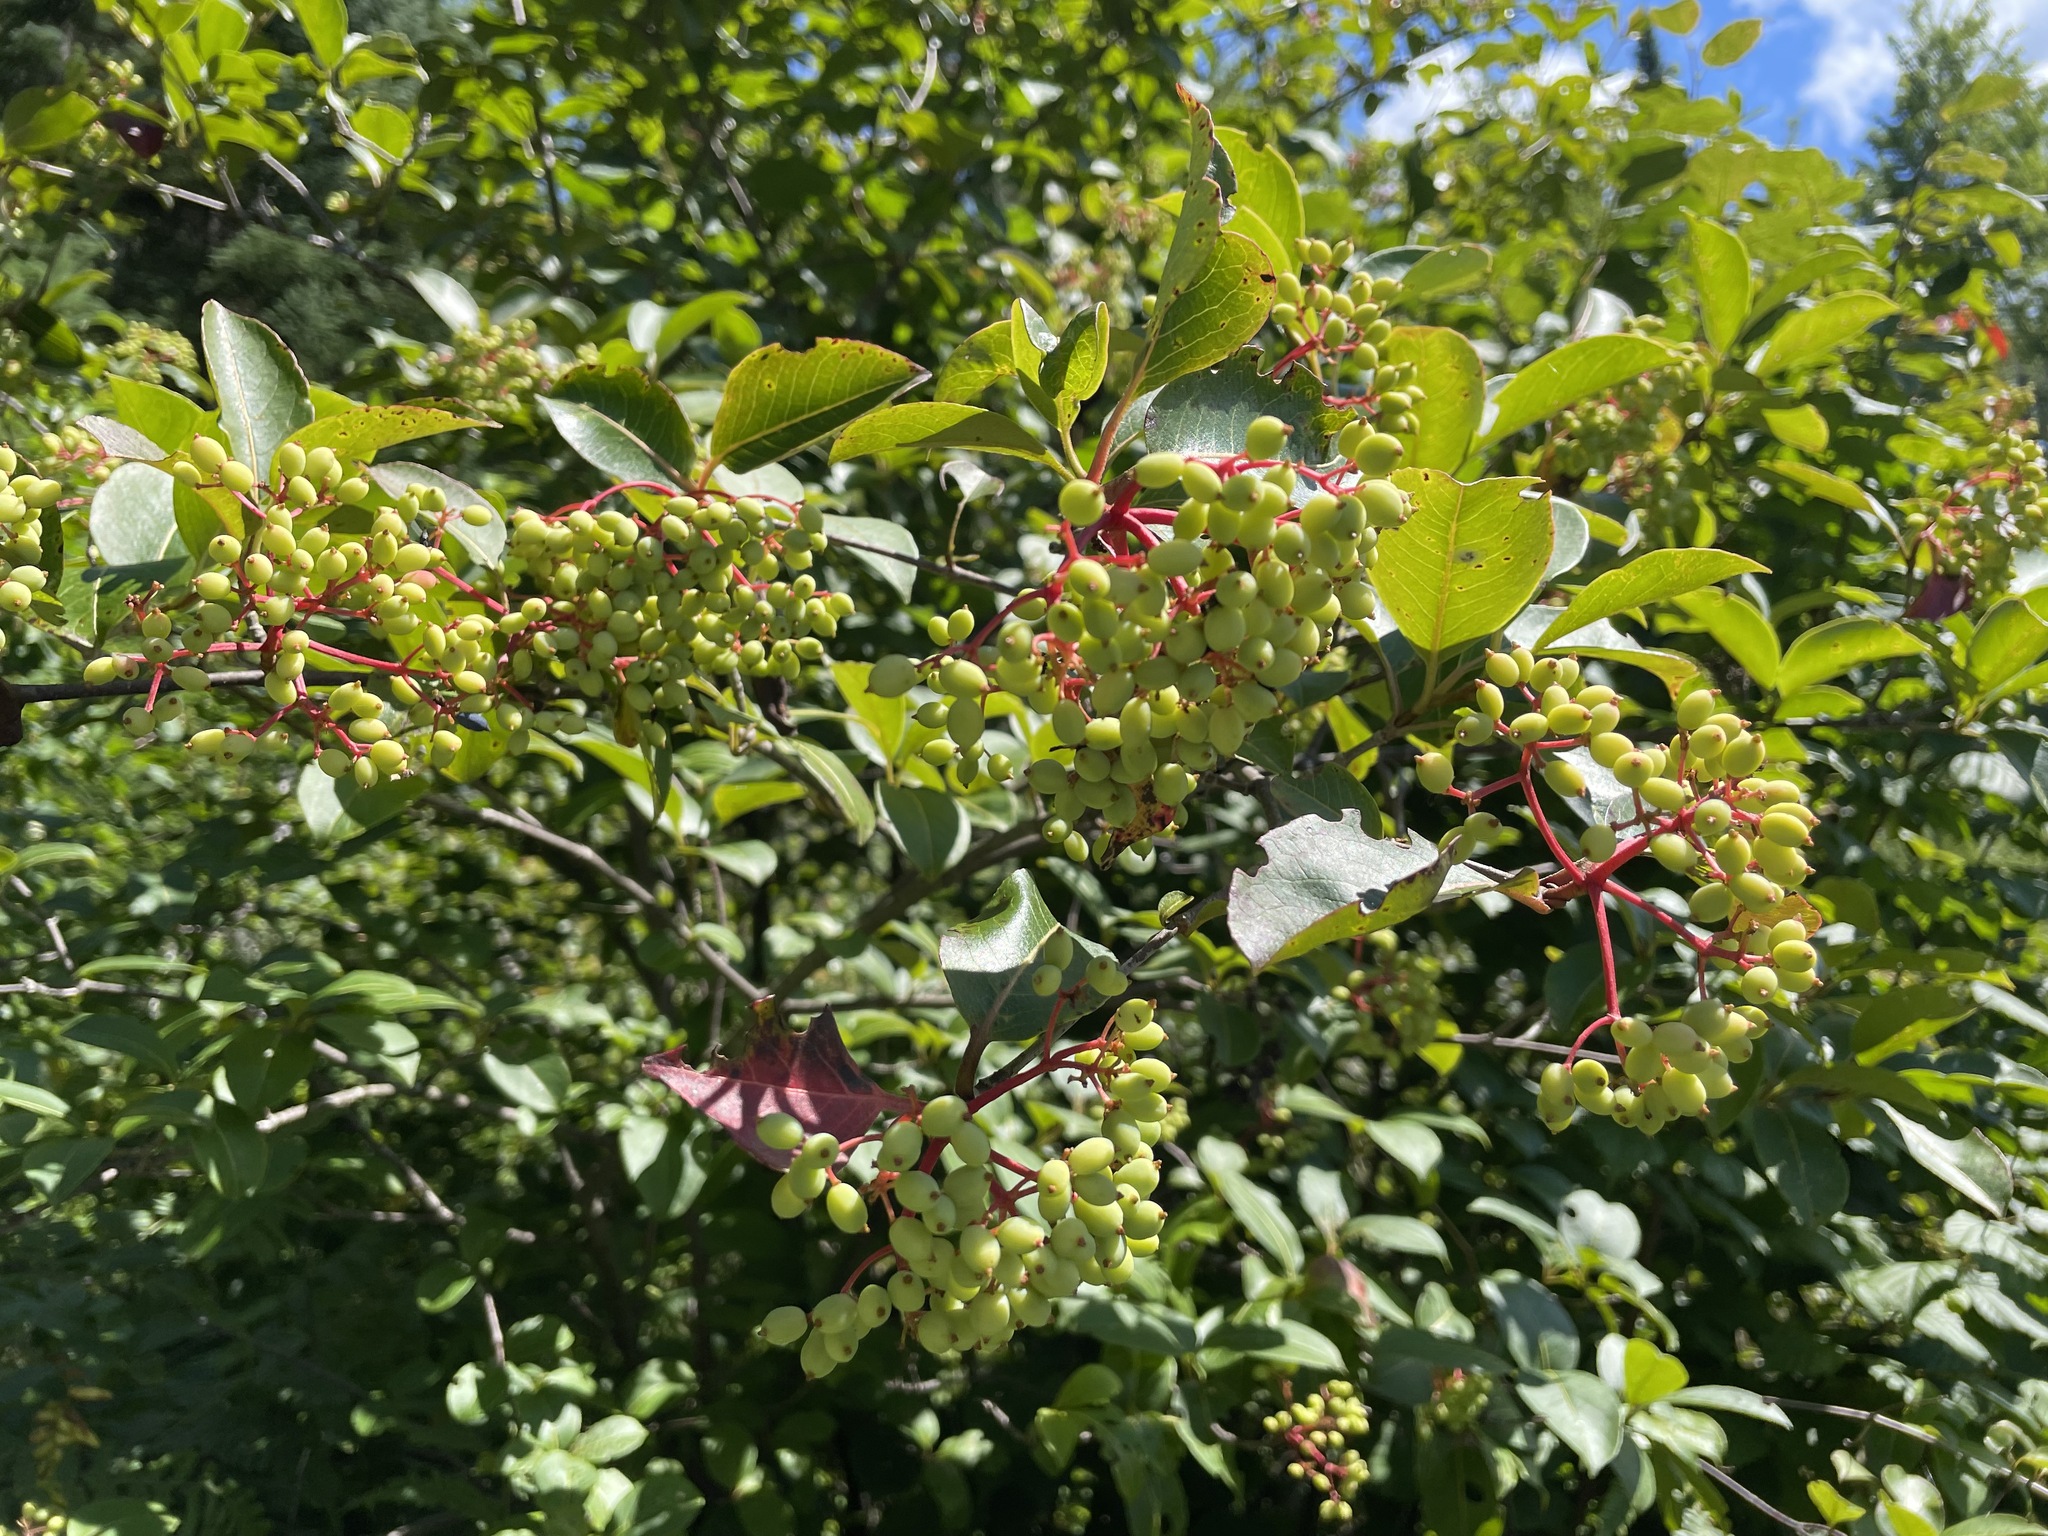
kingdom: Plantae
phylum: Tracheophyta
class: Magnoliopsida
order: Dipsacales
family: Viburnaceae
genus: Viburnum
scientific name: Viburnum cassinoides
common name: Swamp haw
